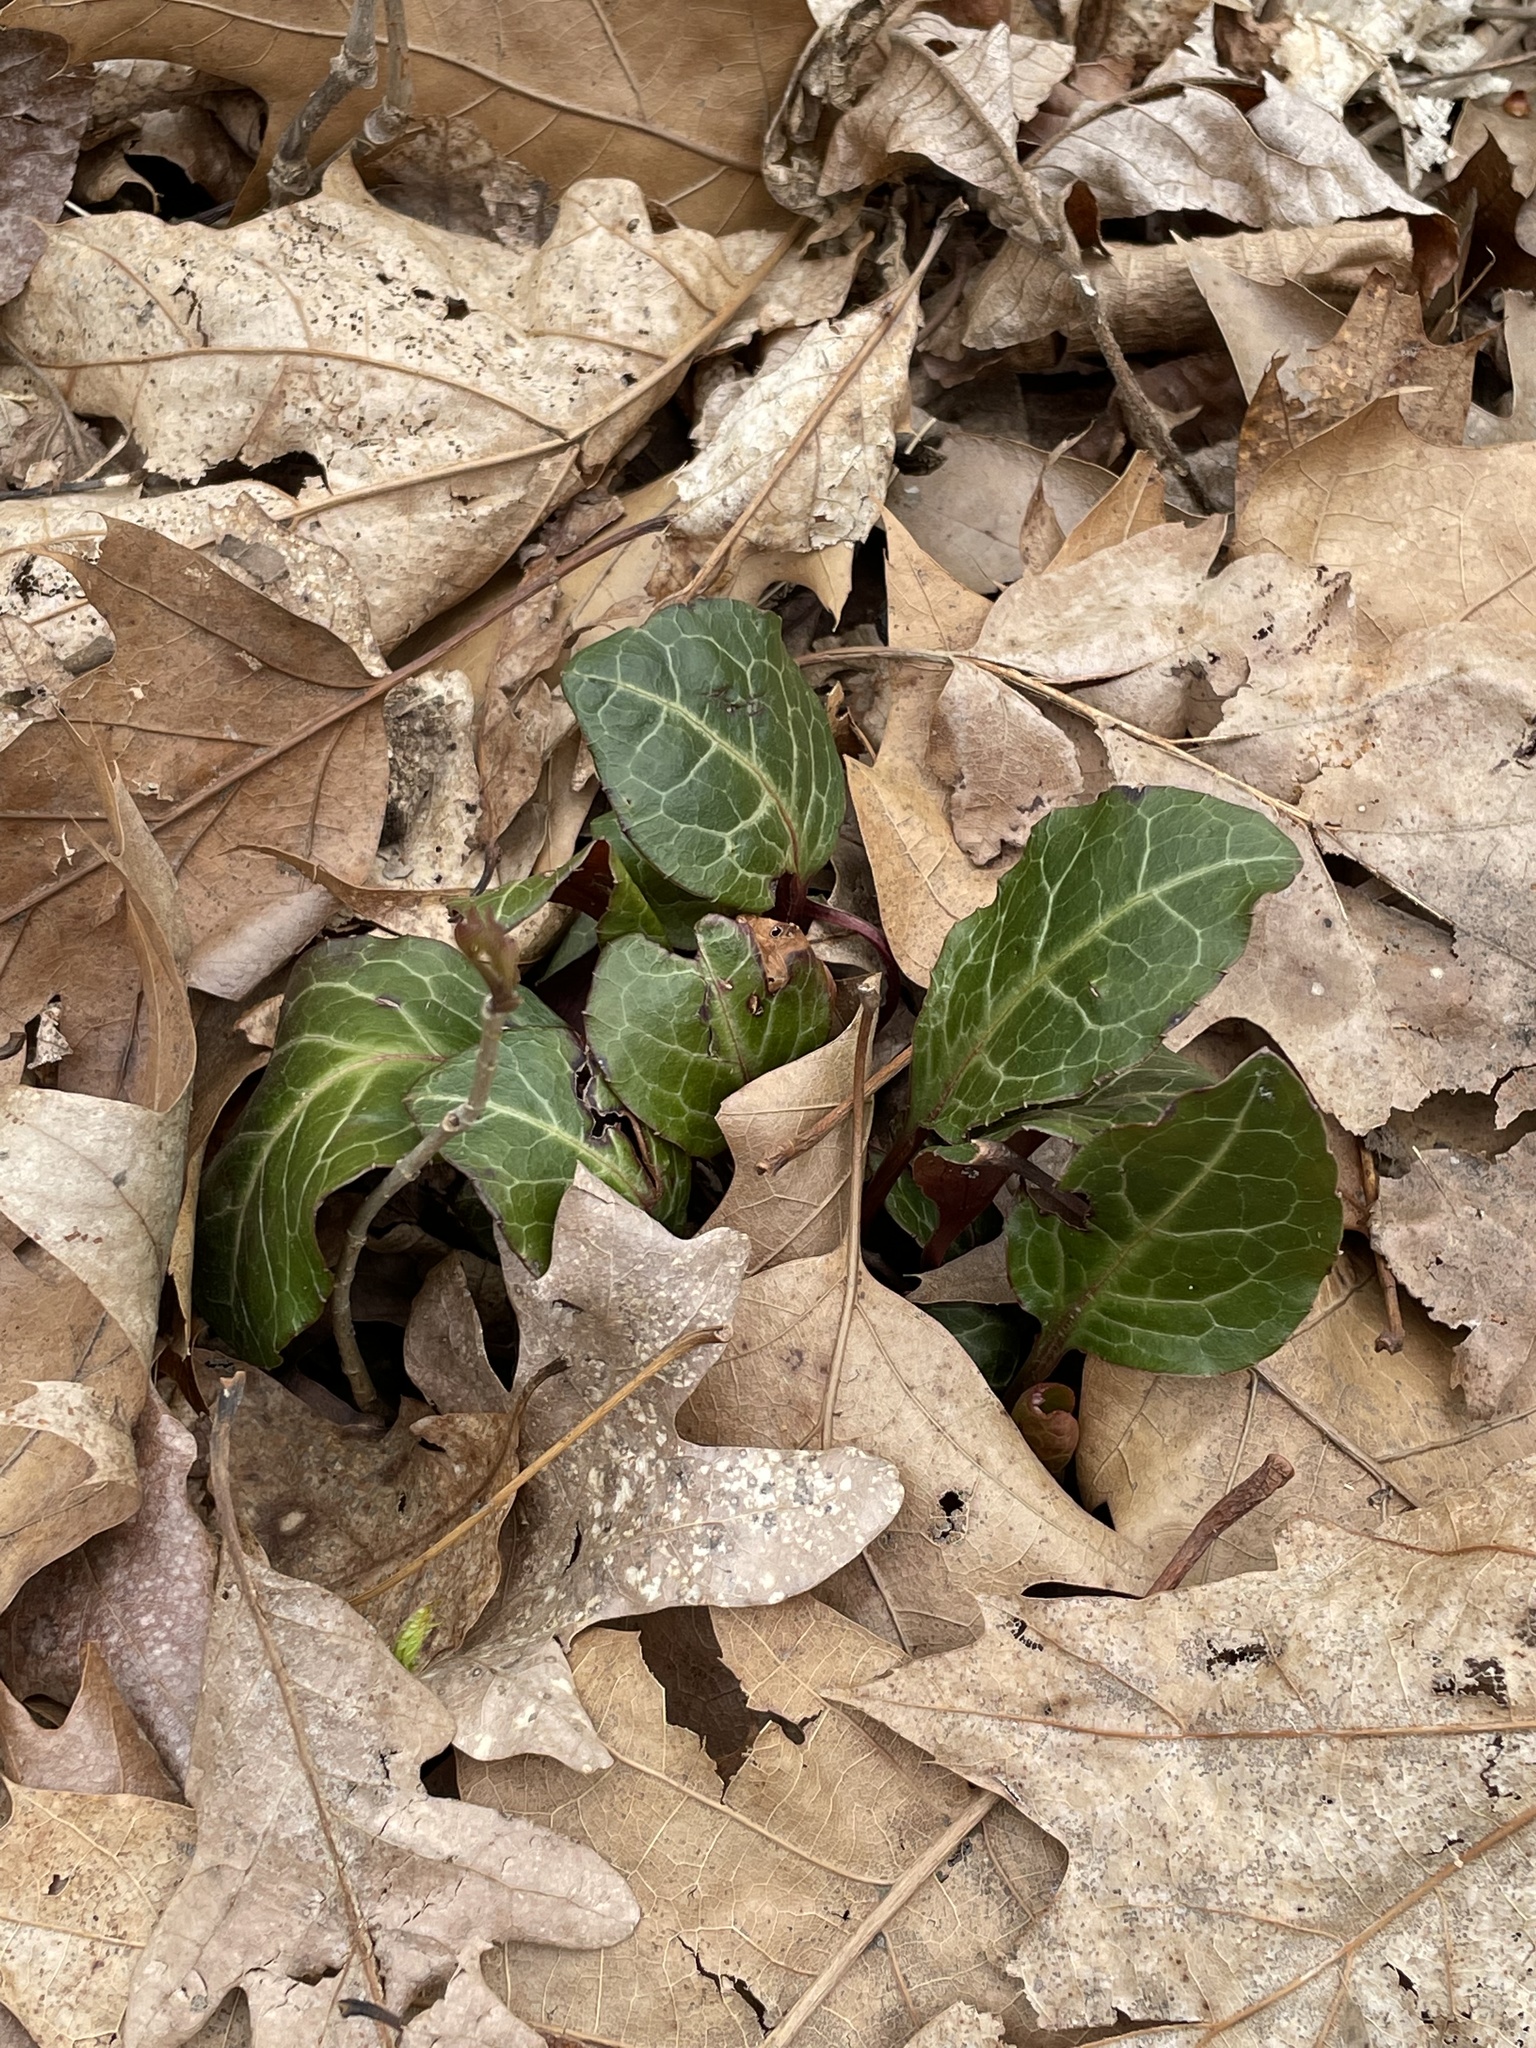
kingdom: Plantae
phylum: Tracheophyta
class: Magnoliopsida
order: Ericales
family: Ericaceae
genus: Pyrola
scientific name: Pyrola americana
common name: American wintergreen
